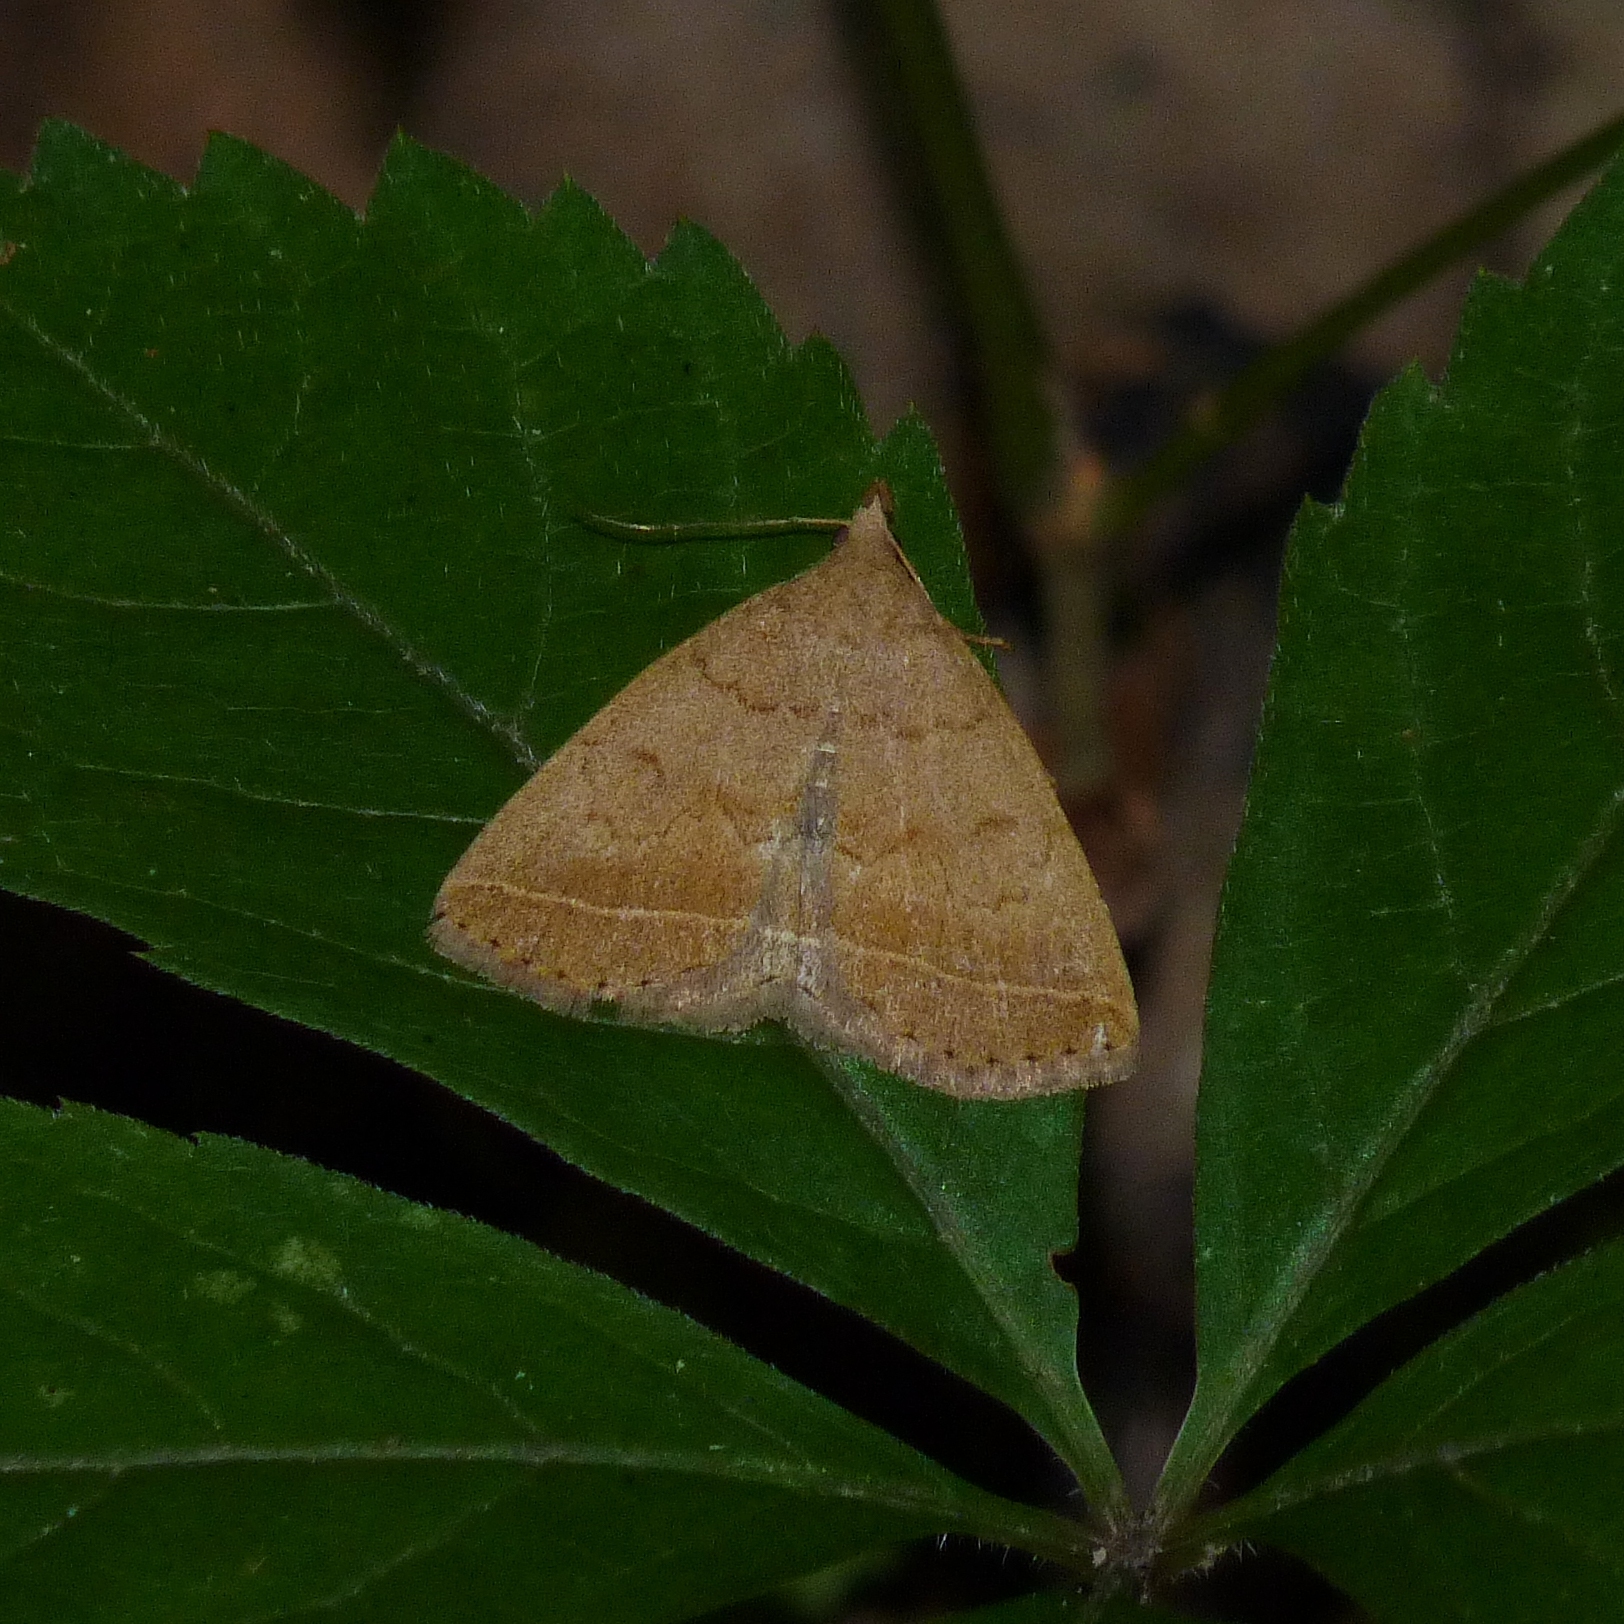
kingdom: Animalia
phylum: Arthropoda
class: Insecta
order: Lepidoptera
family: Erebidae
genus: Zanclognatha
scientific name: Zanclognatha jacchusalis
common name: Yellowish zanclognatha
